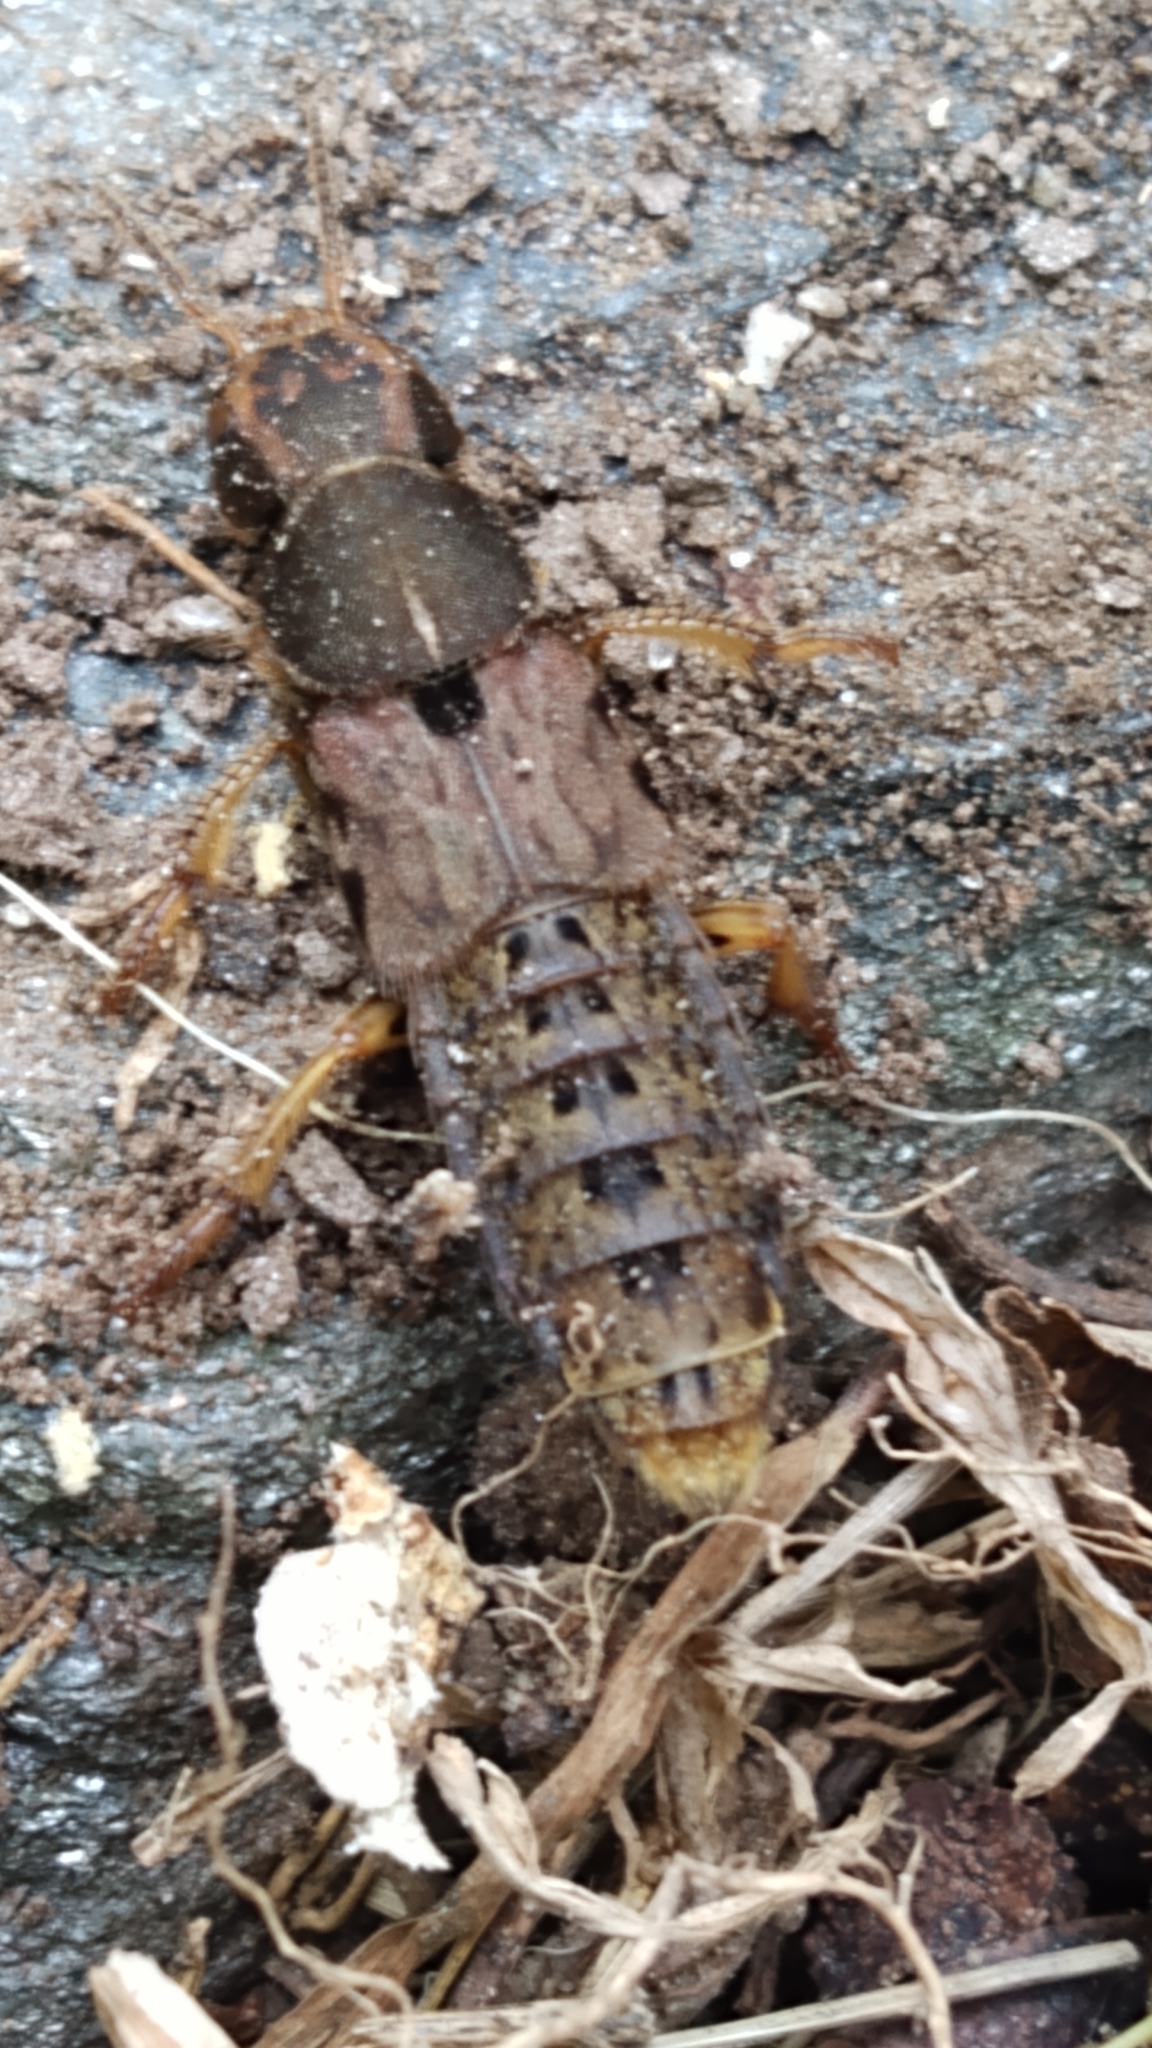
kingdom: Animalia
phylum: Arthropoda
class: Insecta
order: Coleoptera
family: Staphylinidae
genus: Platydracus
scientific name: Platydracus maculosus
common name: Brown rove beetle
